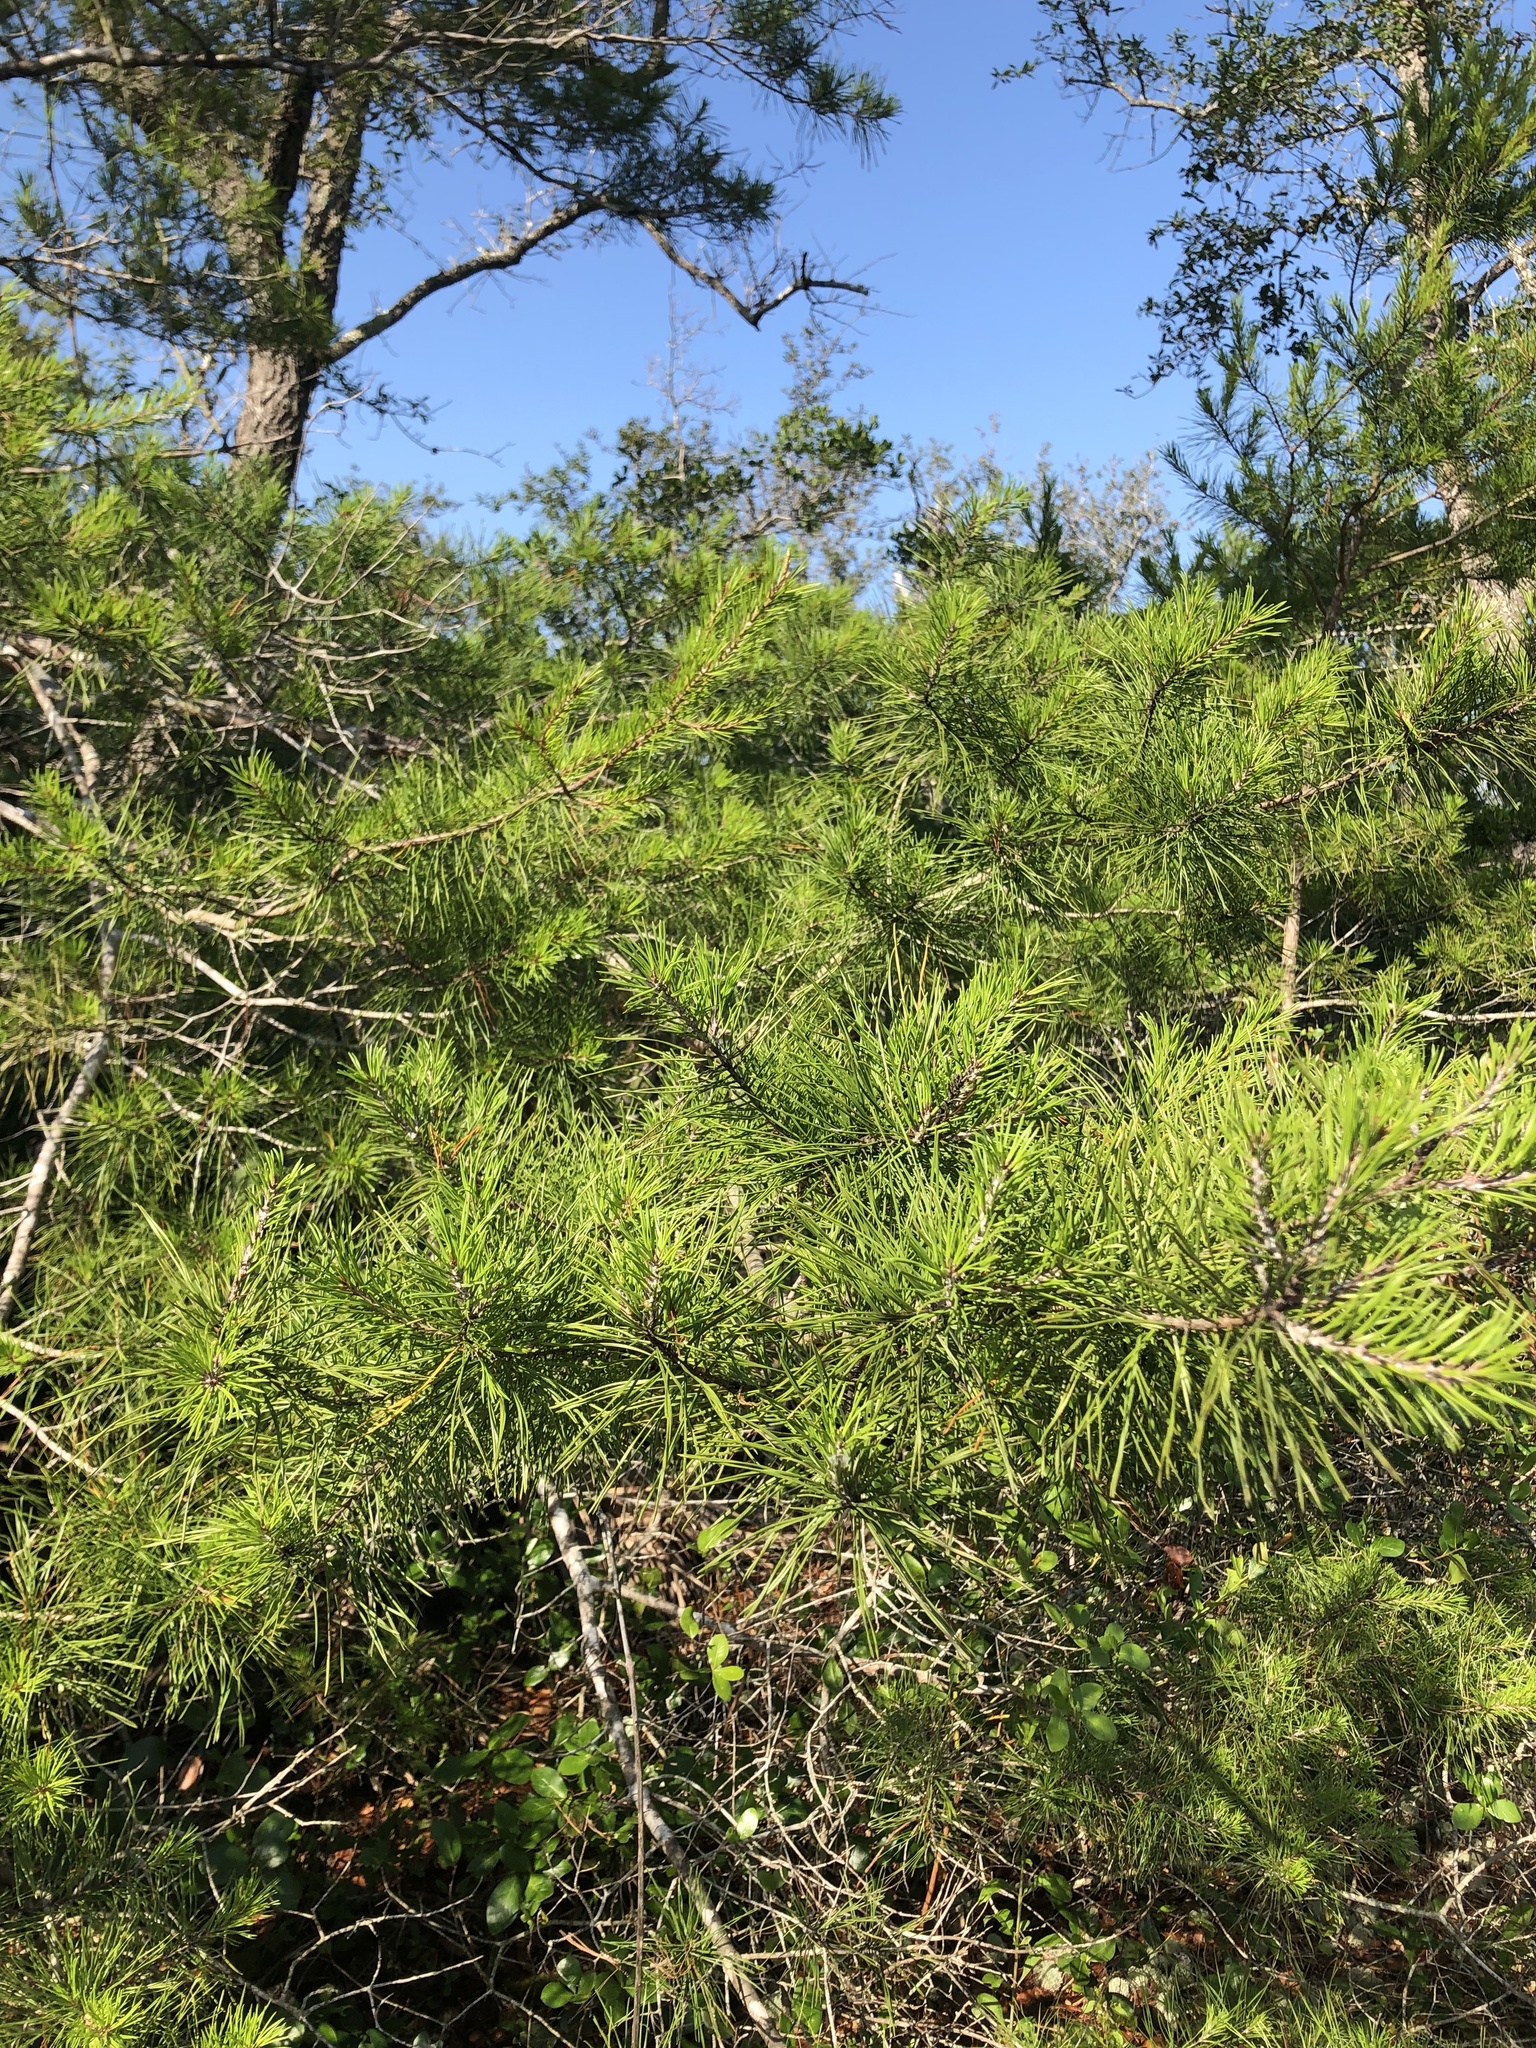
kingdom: Plantae
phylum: Tracheophyta
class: Pinopsida
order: Pinales
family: Pinaceae
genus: Pinus
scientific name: Pinus clausa
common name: Sand pine
